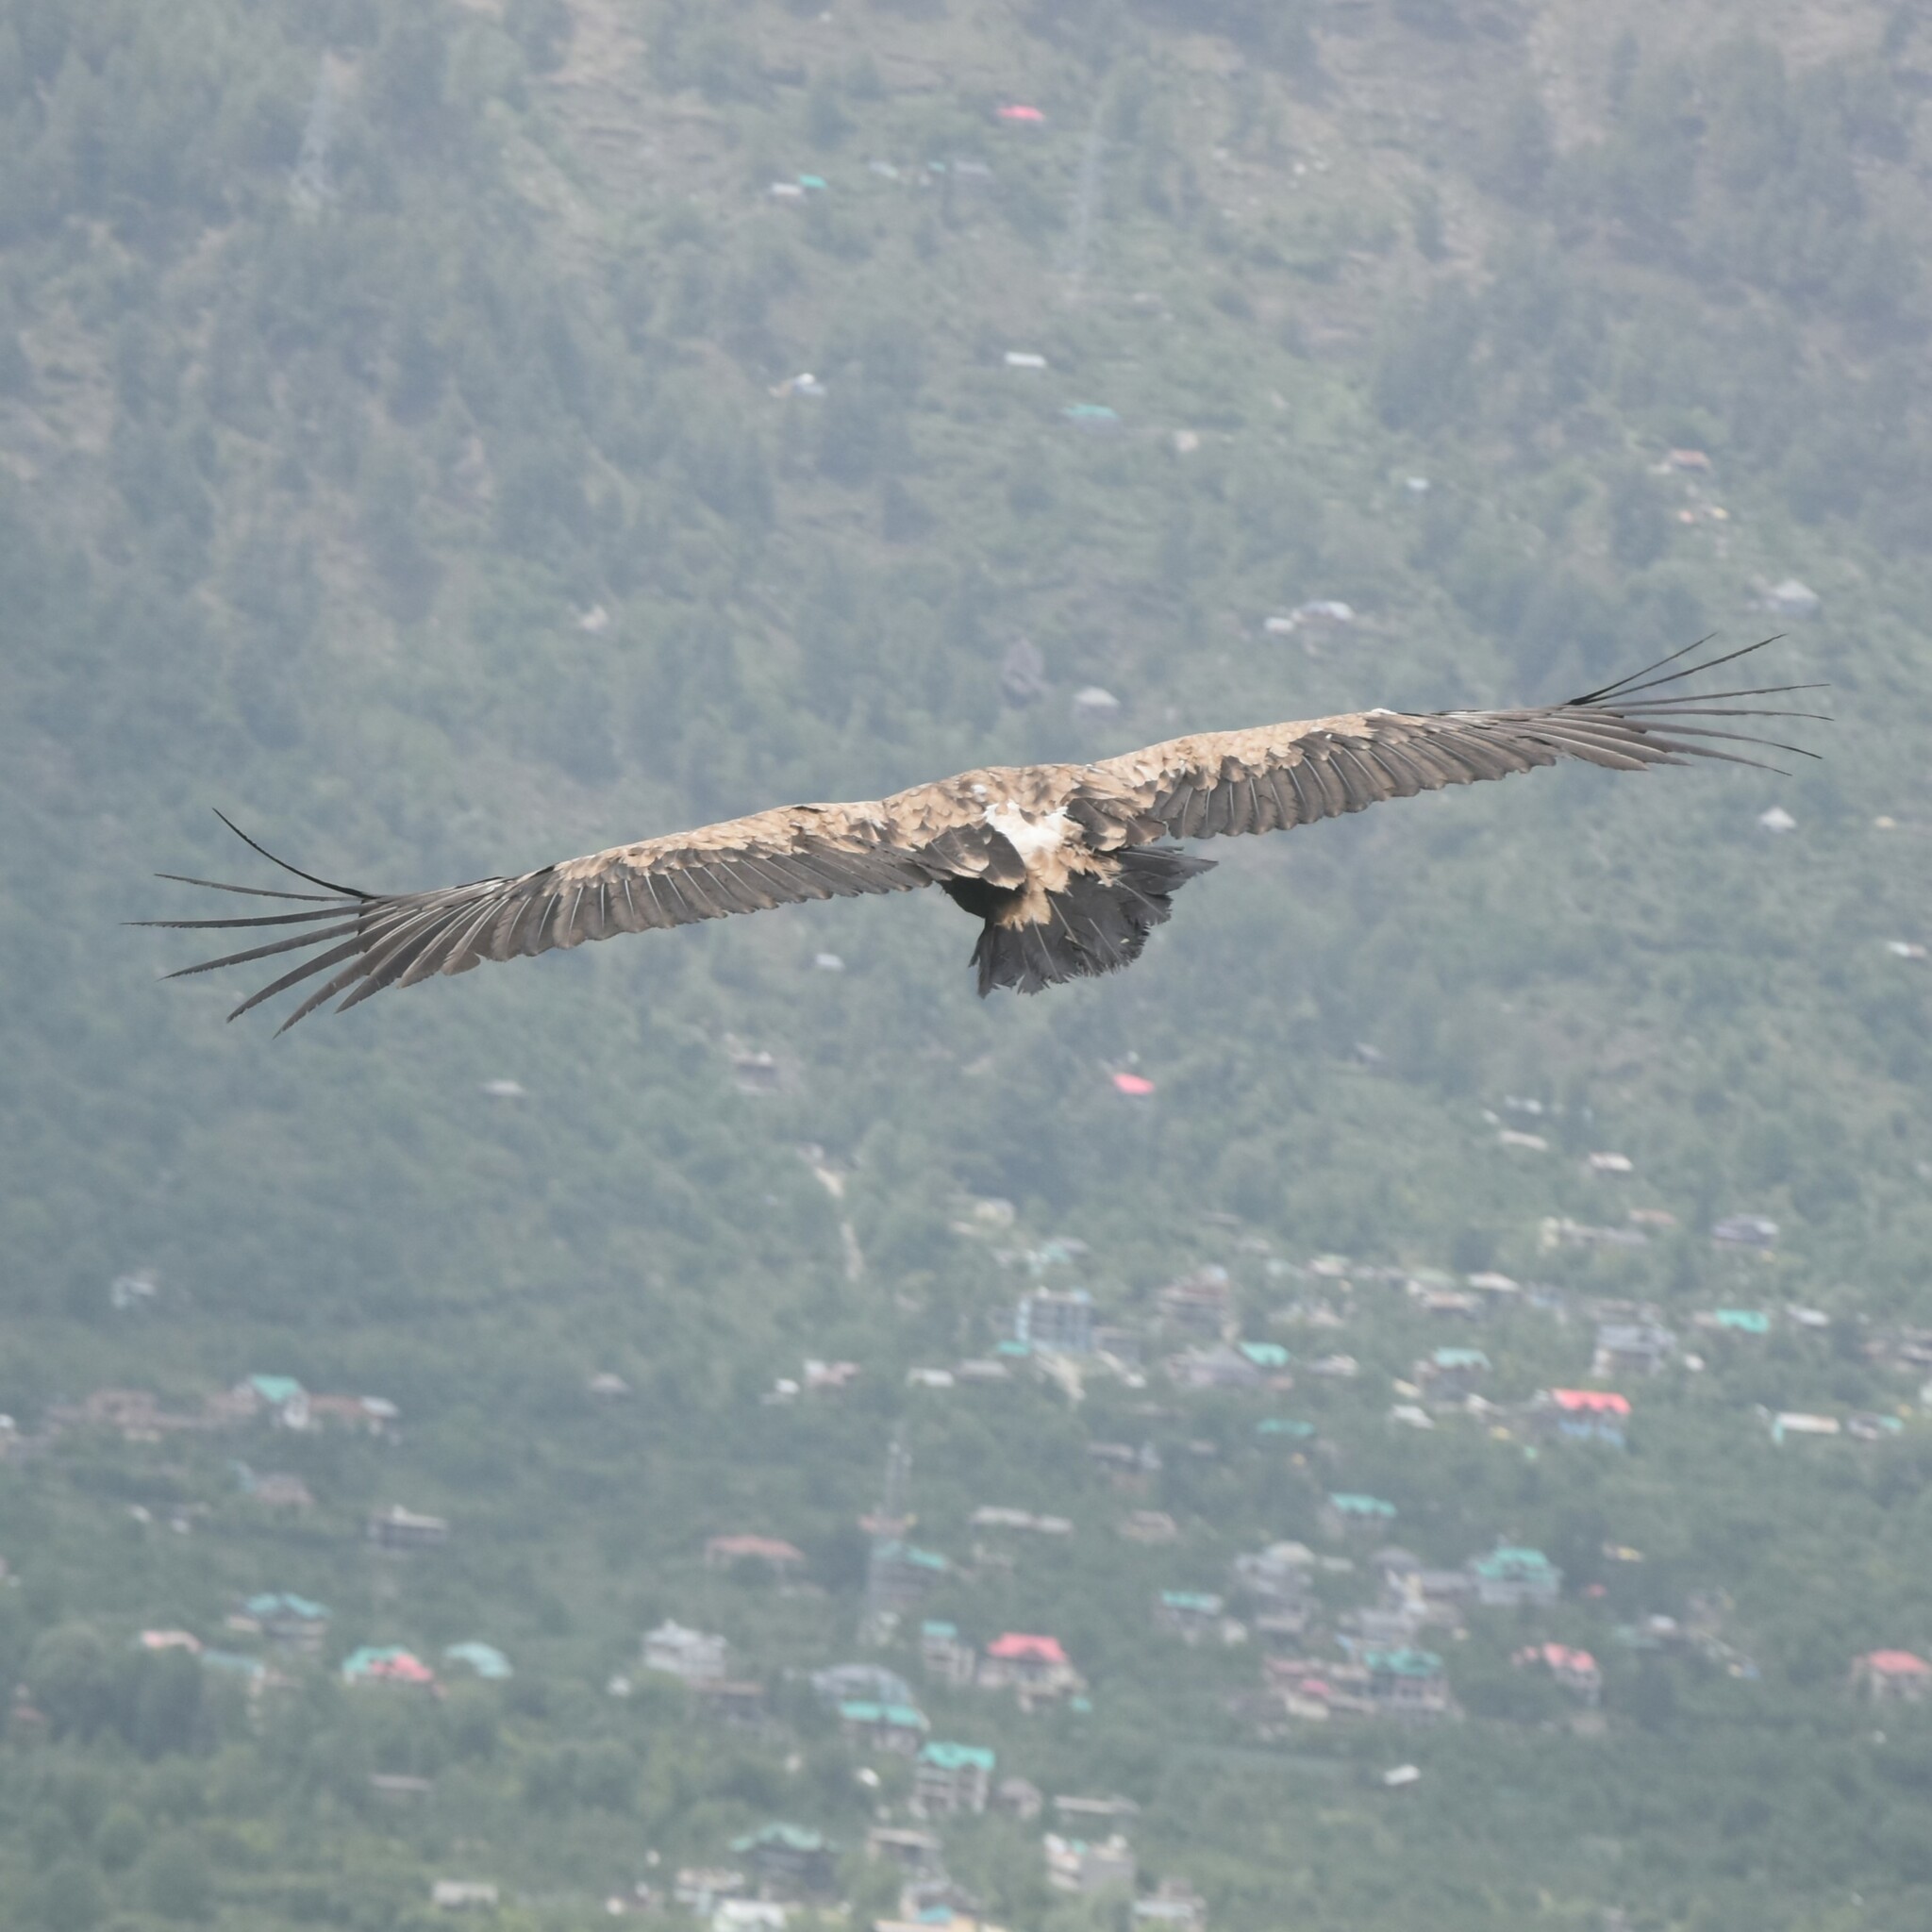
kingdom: Animalia
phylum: Chordata
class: Aves
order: Accipitriformes
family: Accipitridae
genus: Gyps
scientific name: Gyps fulvus
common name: Griffon vulture
